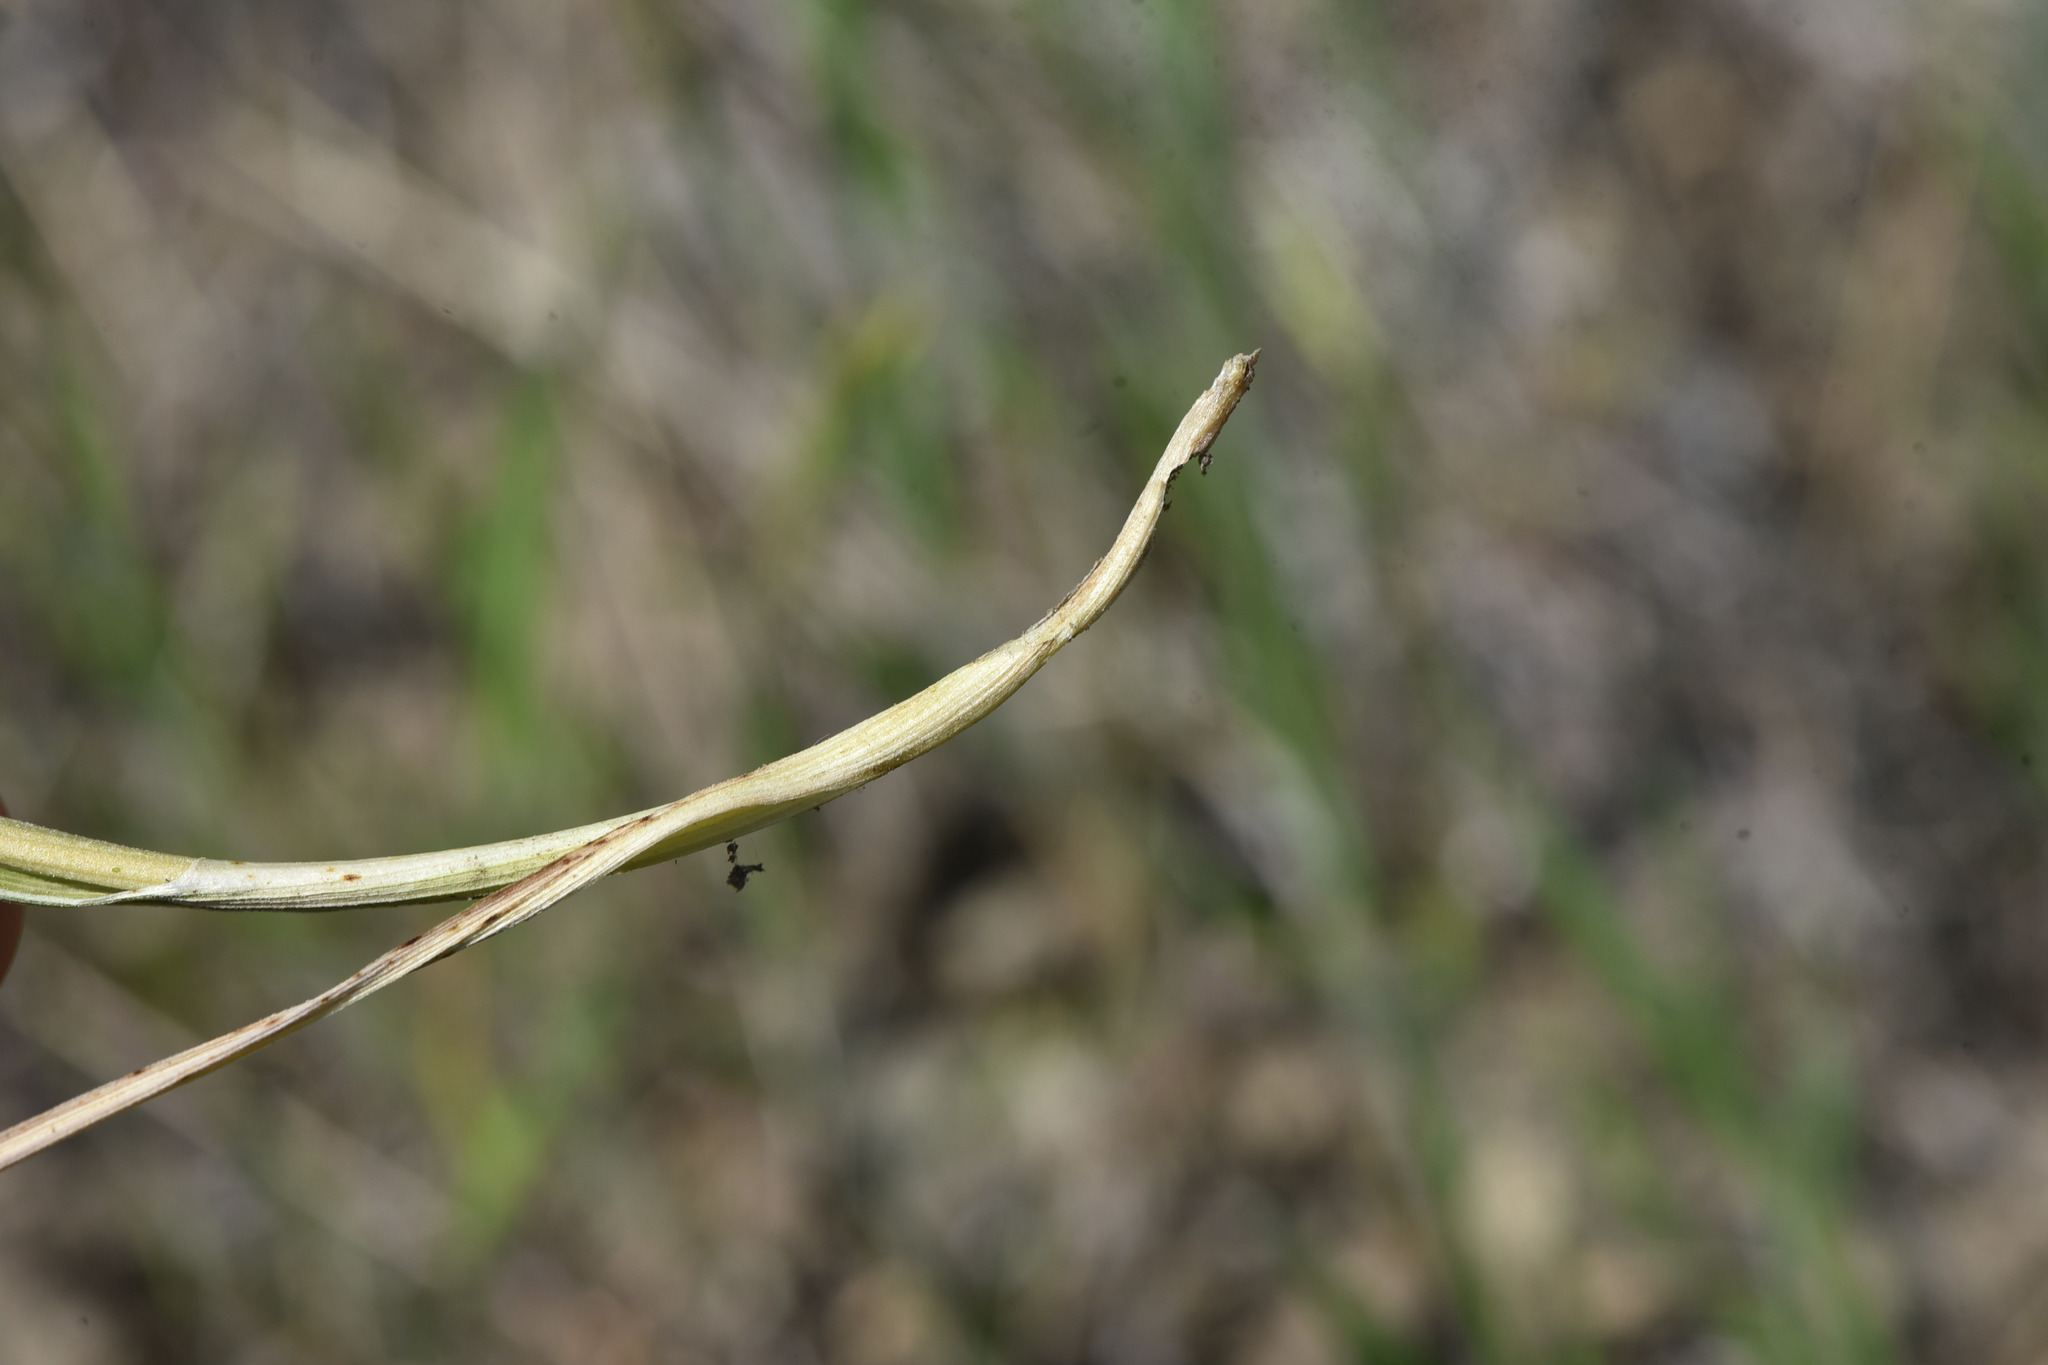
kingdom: Plantae
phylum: Tracheophyta
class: Liliopsida
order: Liliales
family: Melanthiaceae
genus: Toxicoscordion
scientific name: Toxicoscordion venenosum
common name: Meadow death camas
